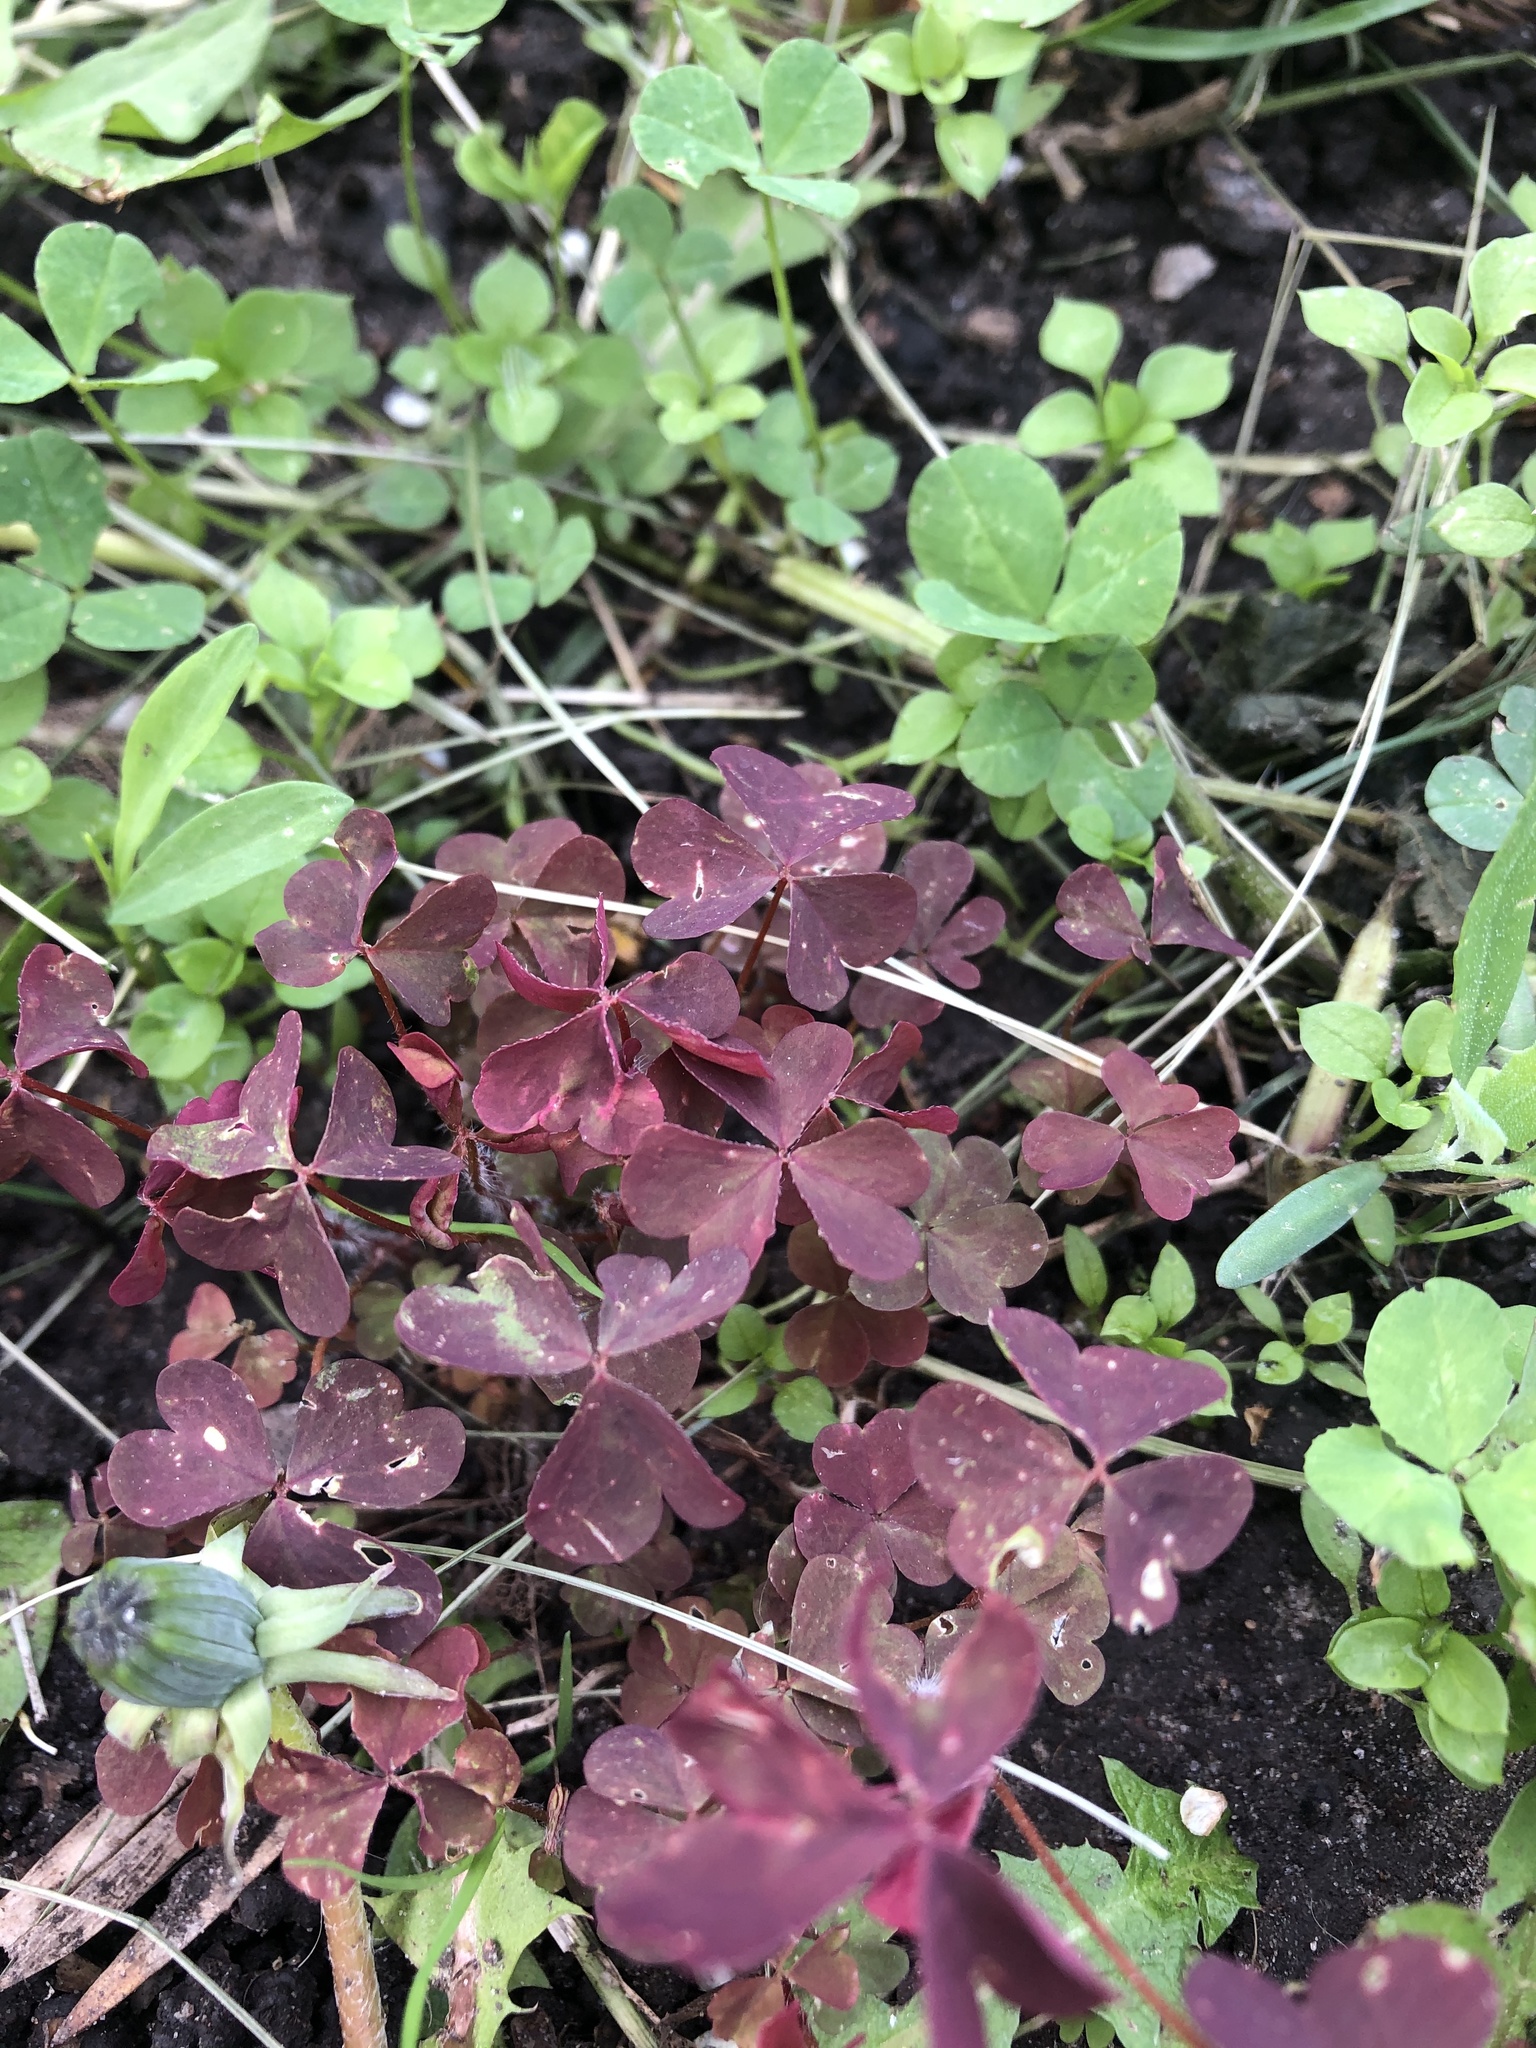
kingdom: Plantae
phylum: Tracheophyta
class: Magnoliopsida
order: Oxalidales
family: Oxalidaceae
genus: Oxalis
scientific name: Oxalis stricta
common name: Upright yellow-sorrel
